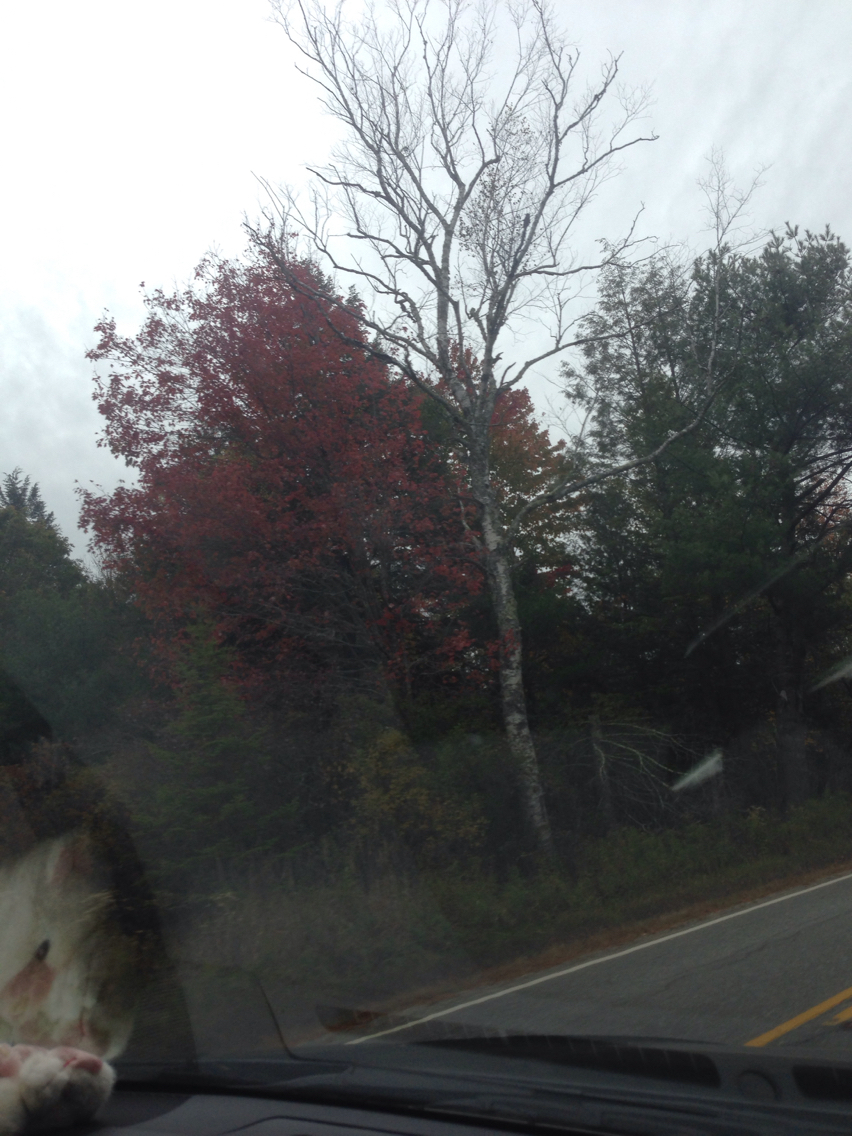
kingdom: Plantae
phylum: Tracheophyta
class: Magnoliopsida
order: Sapindales
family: Sapindaceae
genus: Acer
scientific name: Acer rubrum
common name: Red maple
